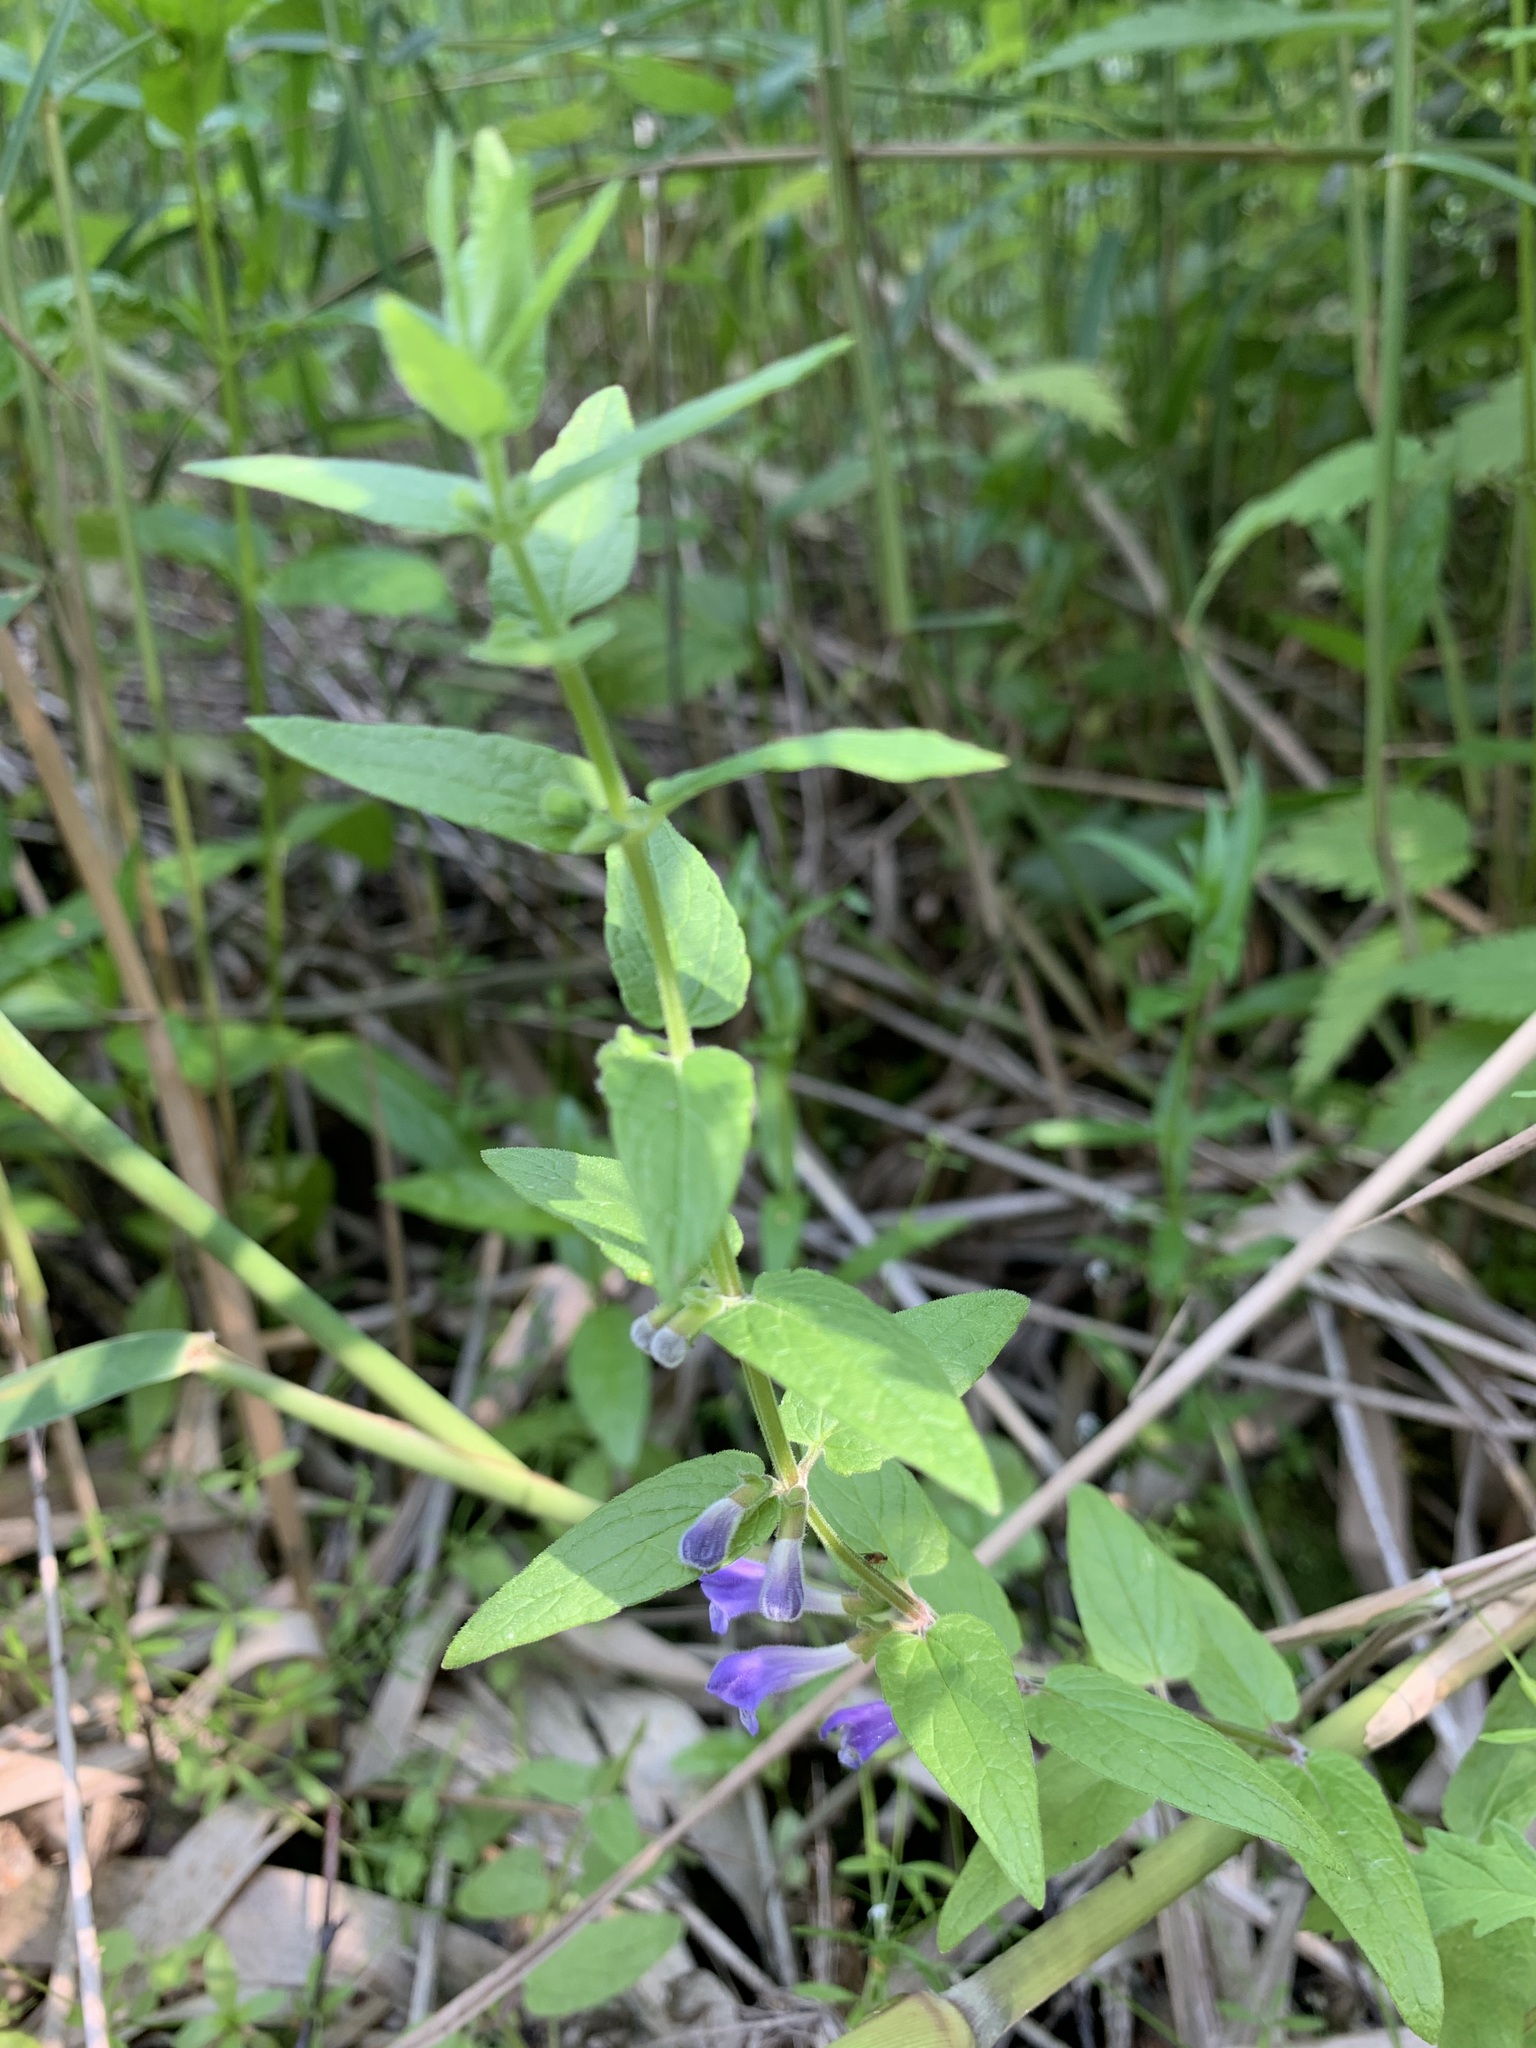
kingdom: Plantae
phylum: Tracheophyta
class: Magnoliopsida
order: Lamiales
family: Lamiaceae
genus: Scutellaria
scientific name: Scutellaria galericulata
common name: Skullcap
